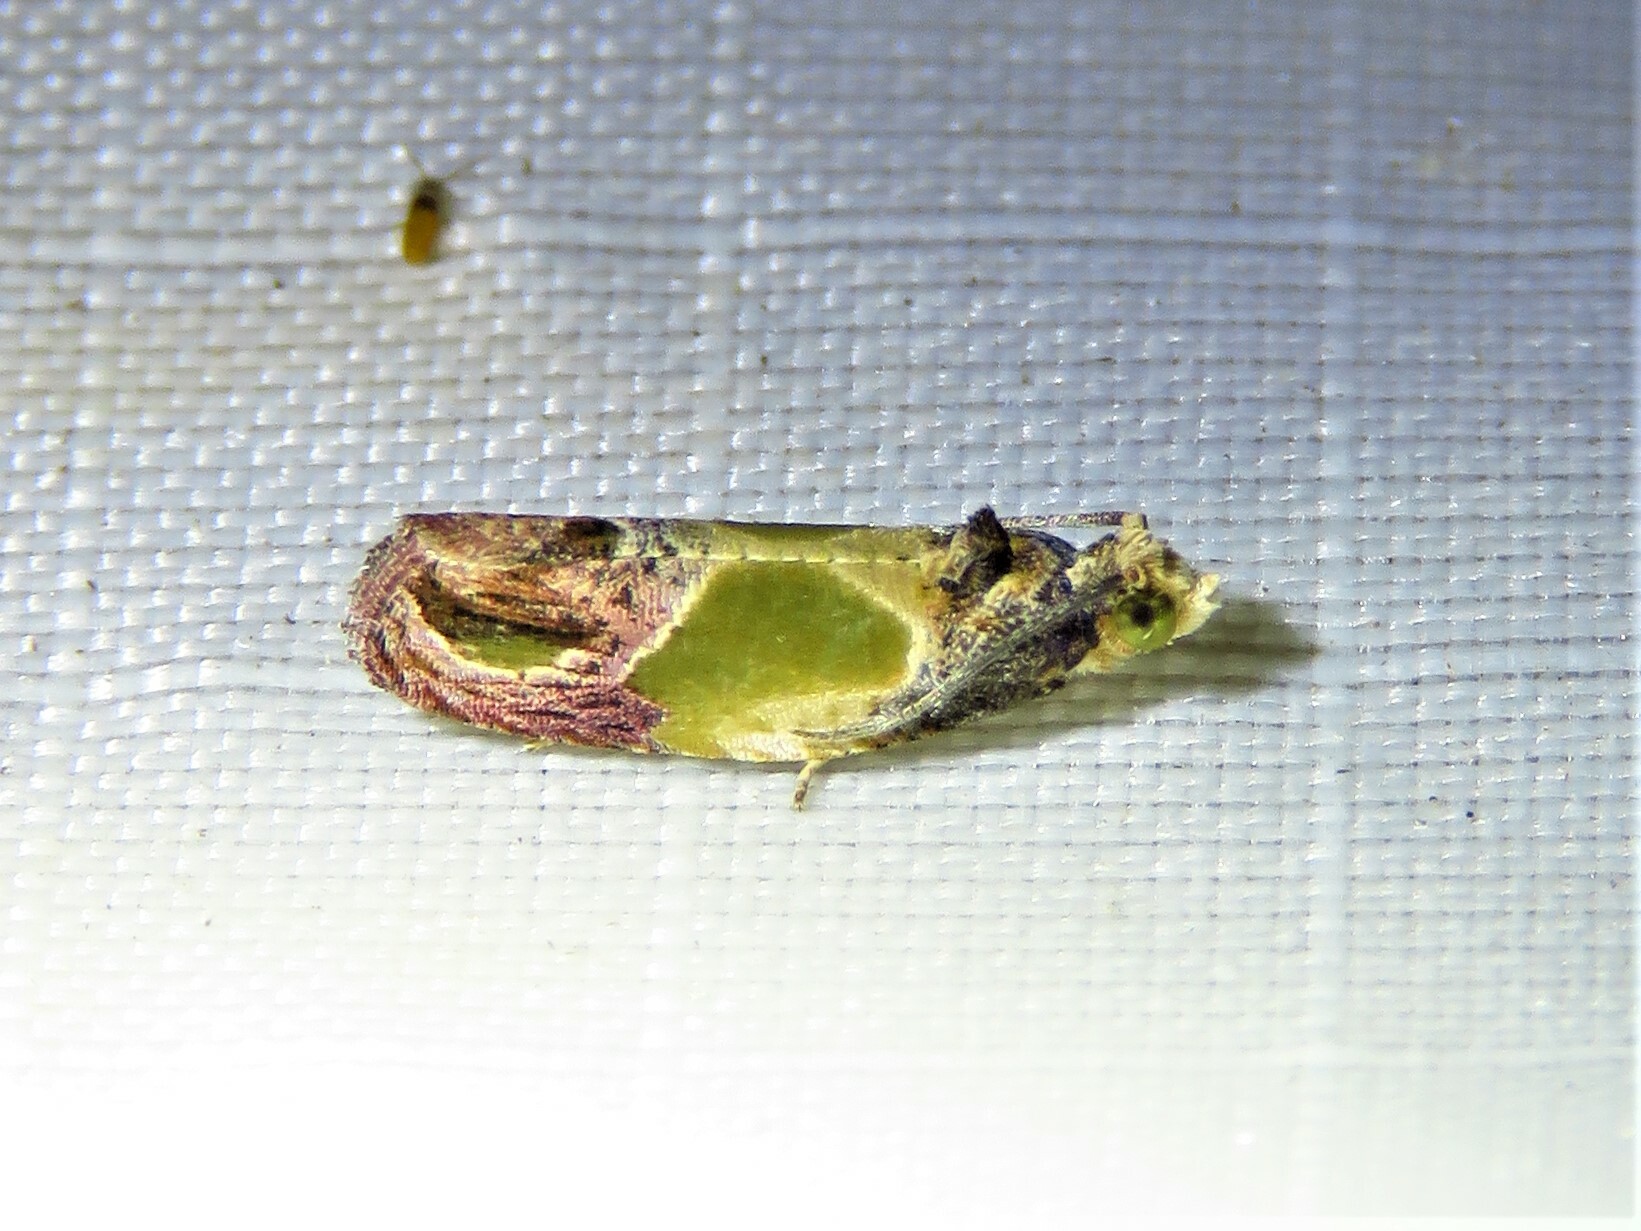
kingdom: Animalia
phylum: Arthropoda
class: Insecta
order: Lepidoptera
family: Tortricidae
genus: Eumarozia
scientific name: Eumarozia malachitana
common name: Sculptured moth
